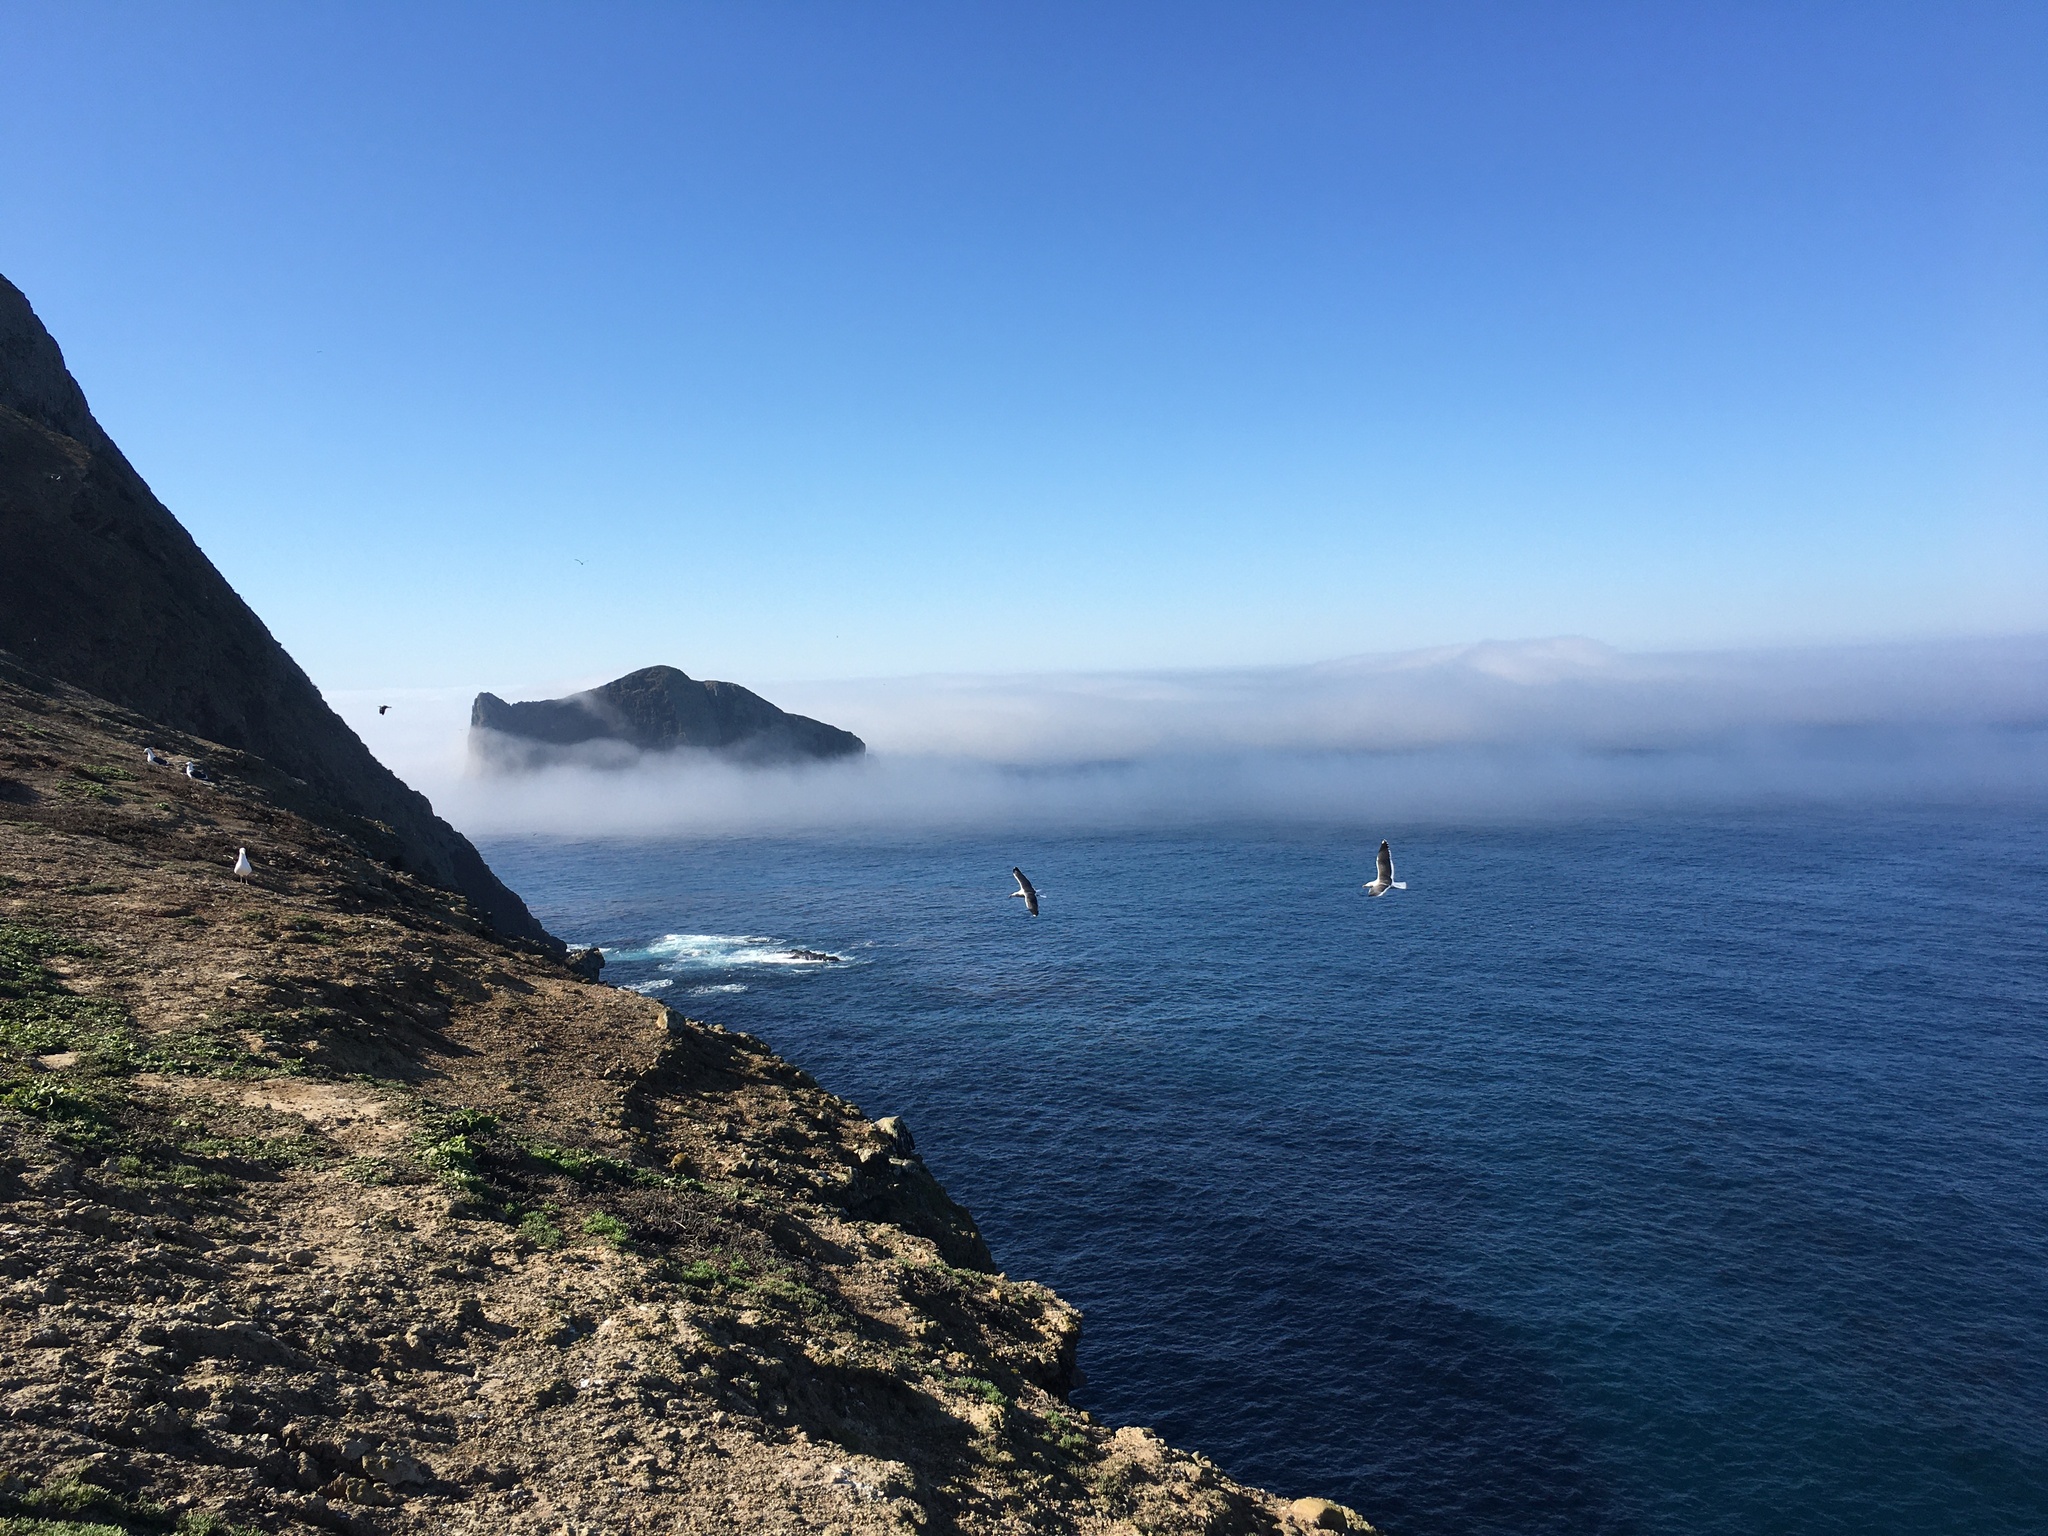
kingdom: Animalia
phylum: Chordata
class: Aves
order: Charadriiformes
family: Laridae
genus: Larus
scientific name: Larus occidentalis
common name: Western gull
